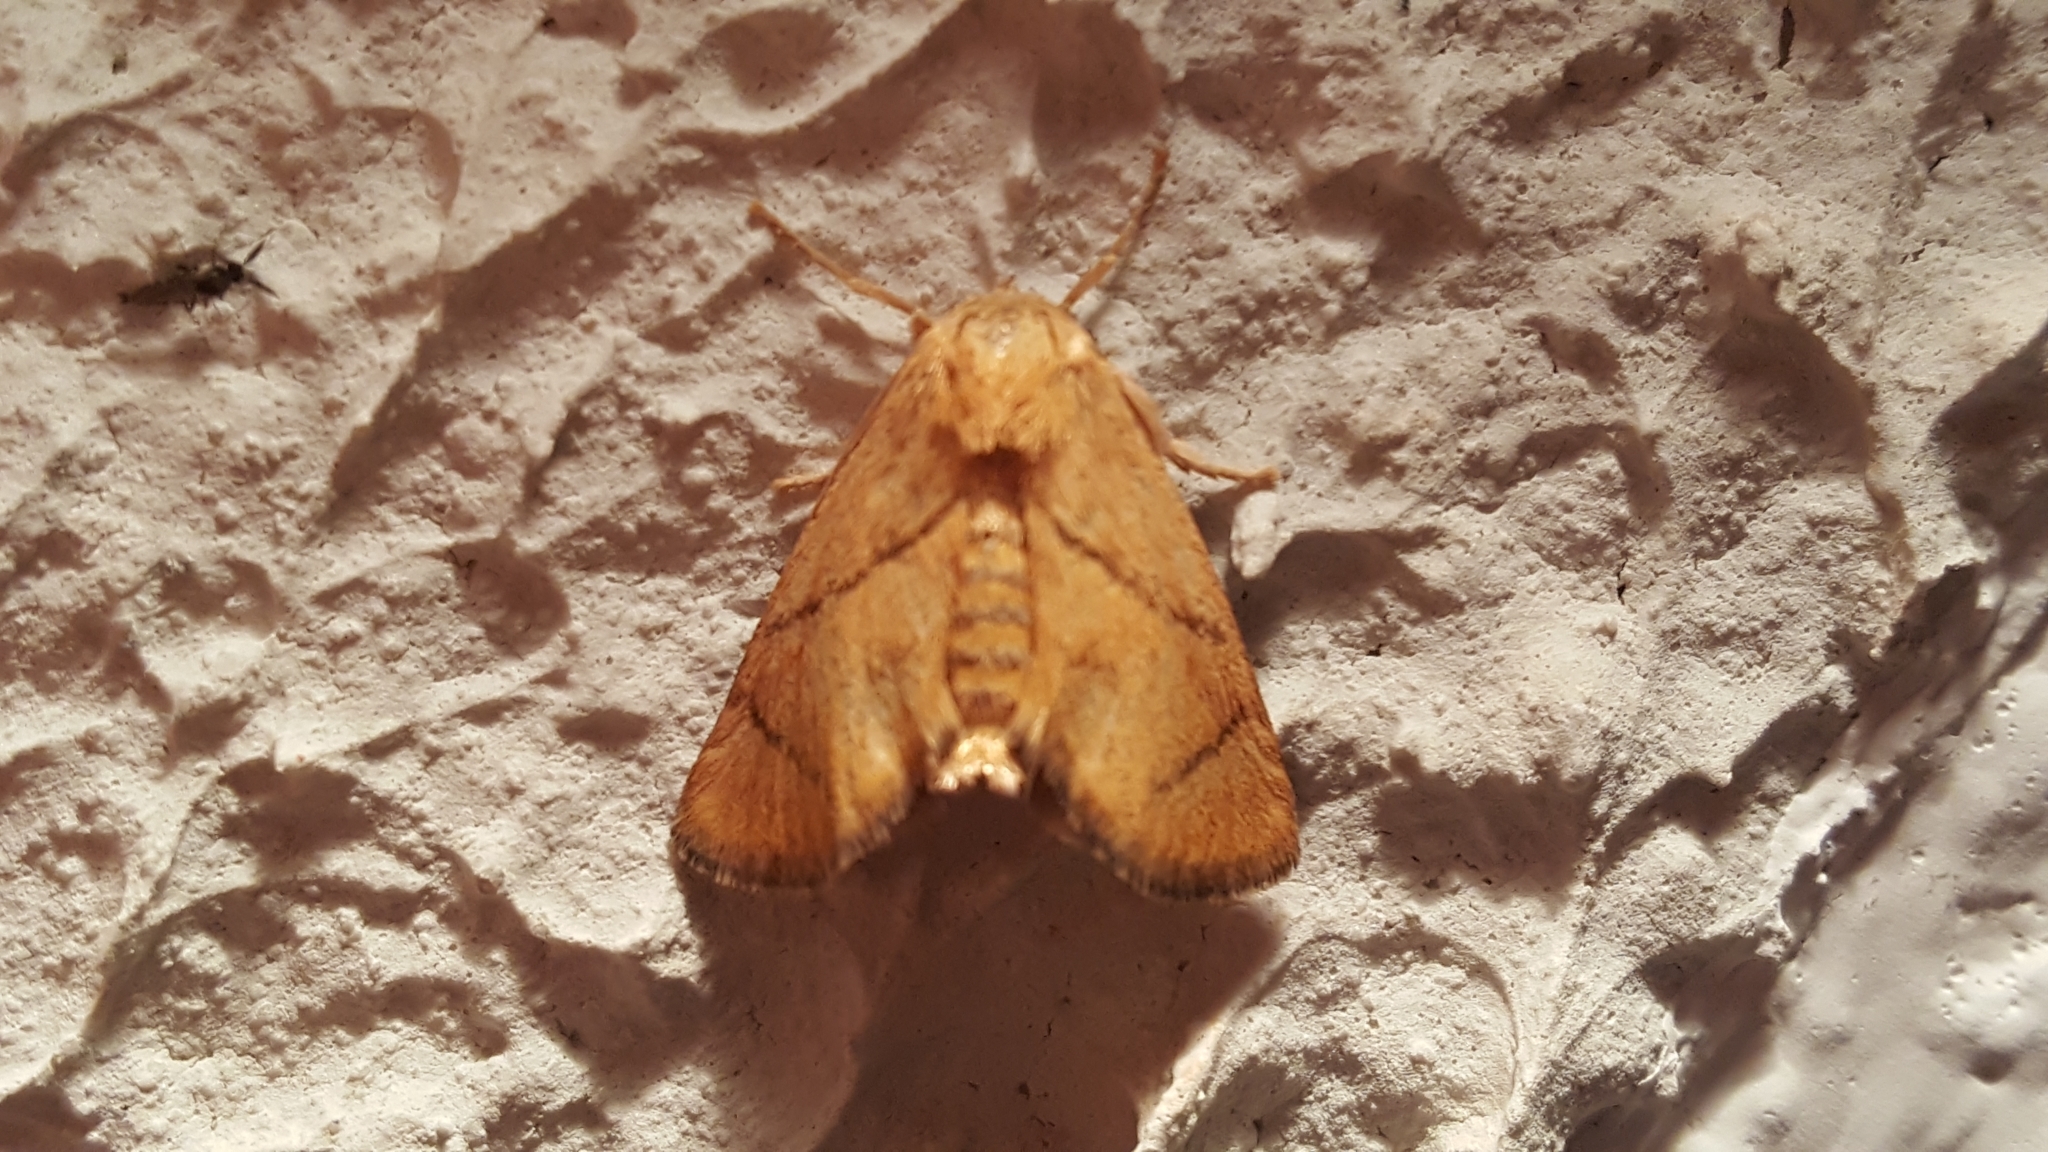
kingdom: Animalia
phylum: Arthropoda
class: Insecta
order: Lepidoptera
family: Limacodidae
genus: Apoda
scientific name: Apoda limacodes
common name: Festoon
